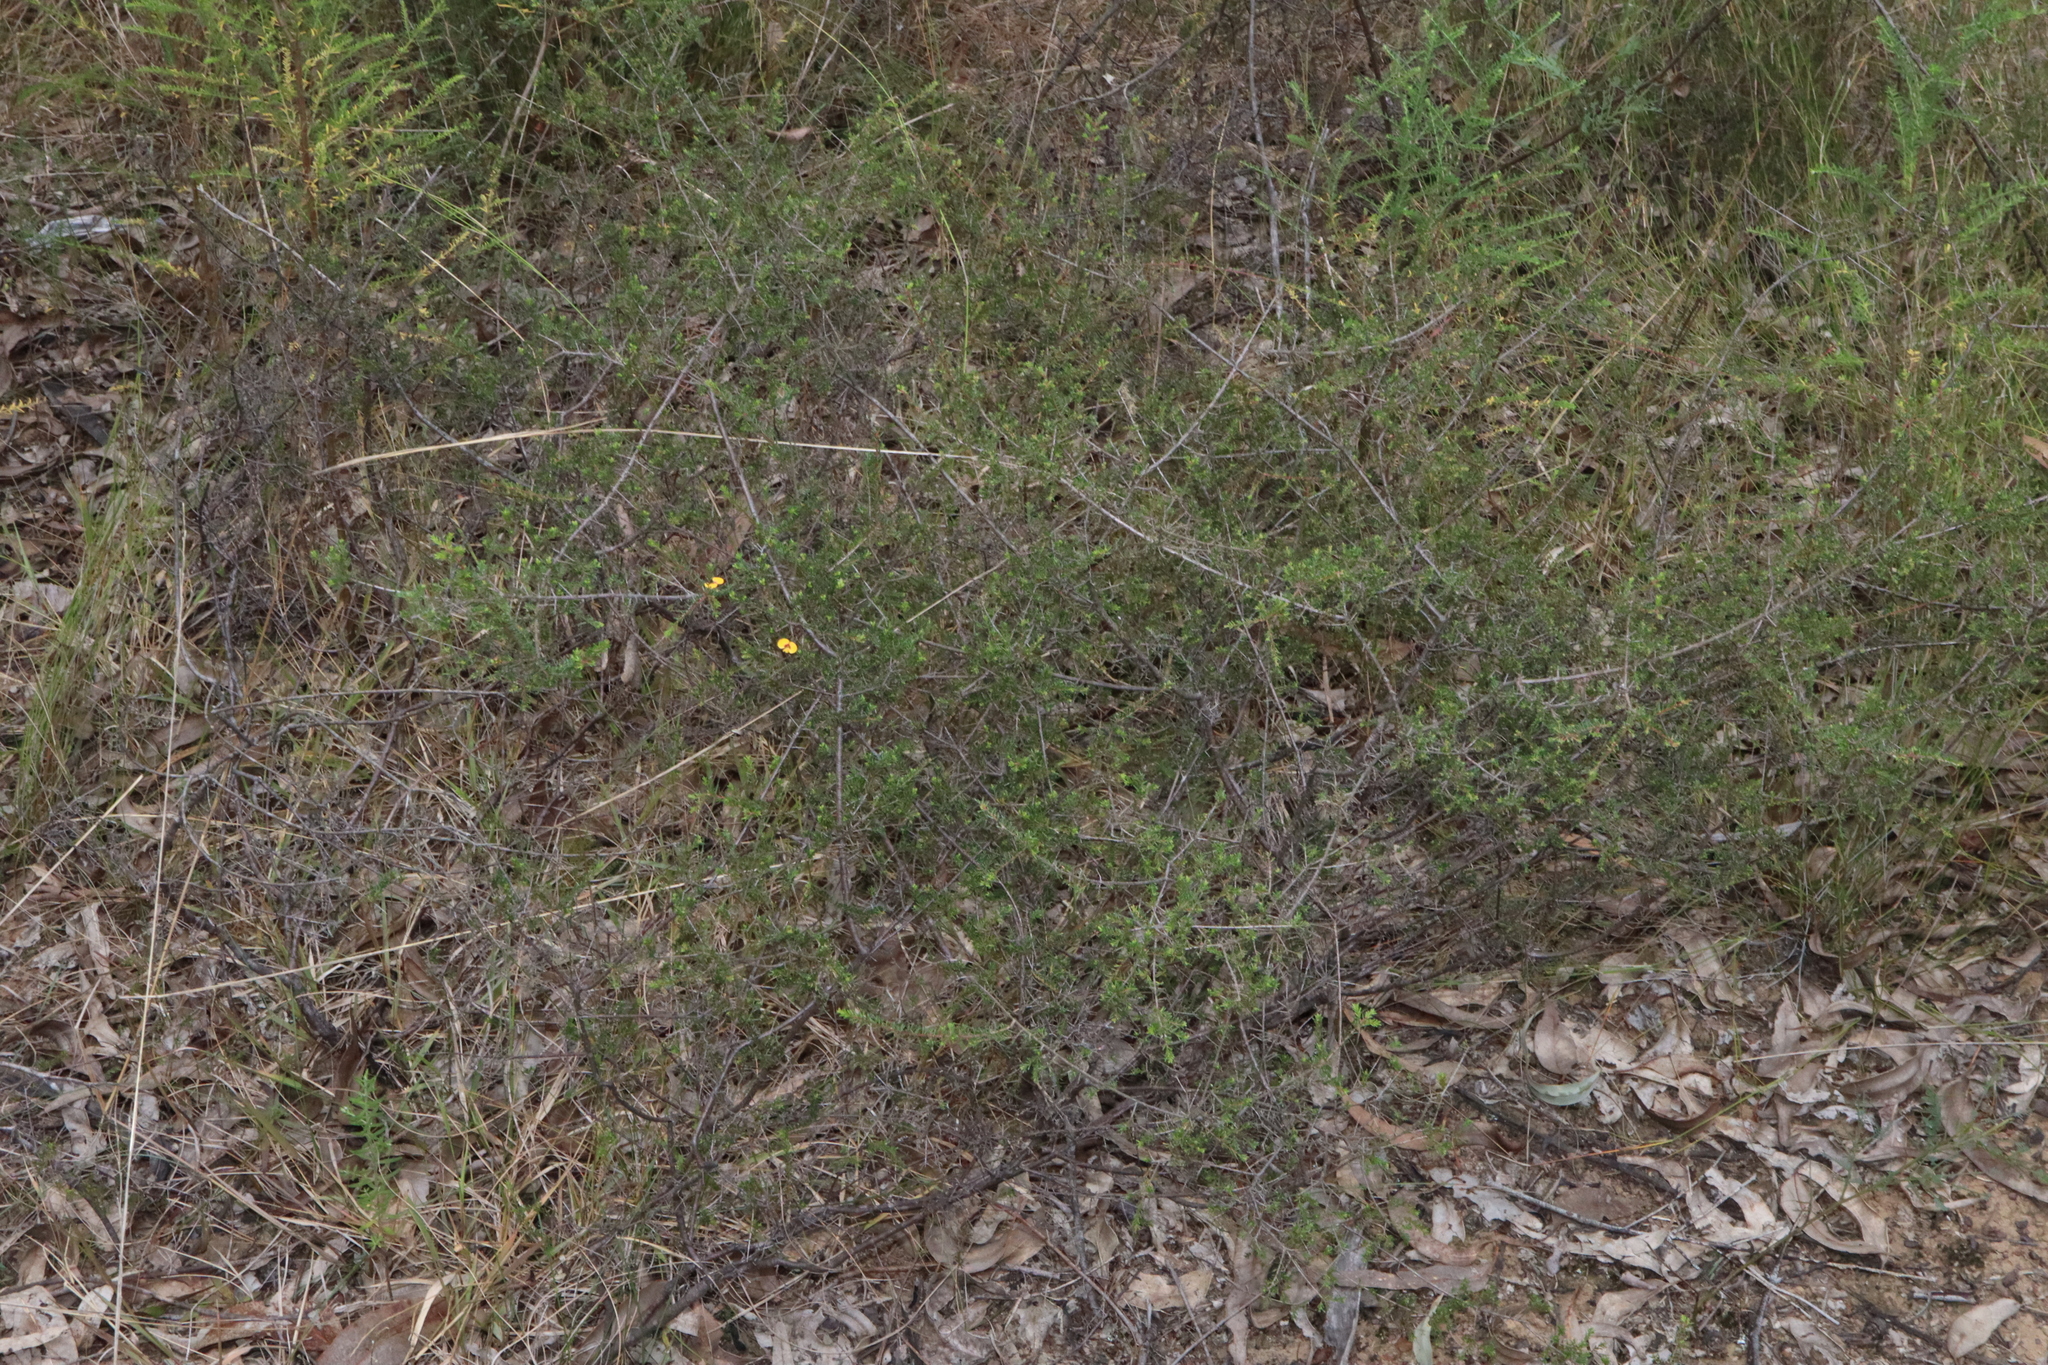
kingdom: Plantae
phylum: Tracheophyta
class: Magnoliopsida
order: Fabales
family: Fabaceae
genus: Dillwynia
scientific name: Dillwynia parvifolia
